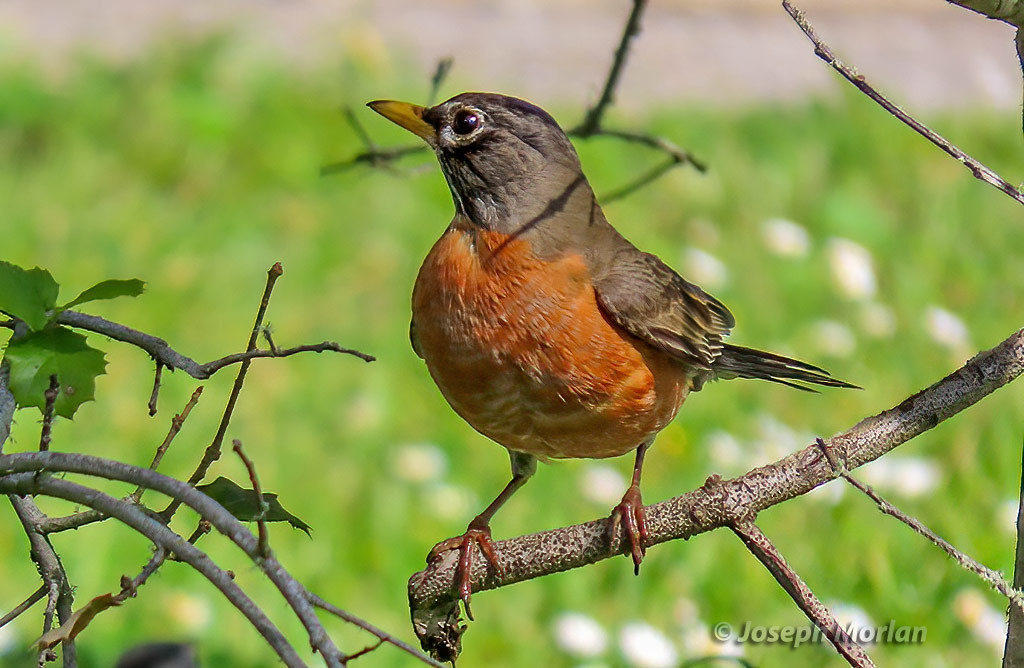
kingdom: Animalia
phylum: Chordata
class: Aves
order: Passeriformes
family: Turdidae
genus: Turdus
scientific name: Turdus migratorius
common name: American robin
